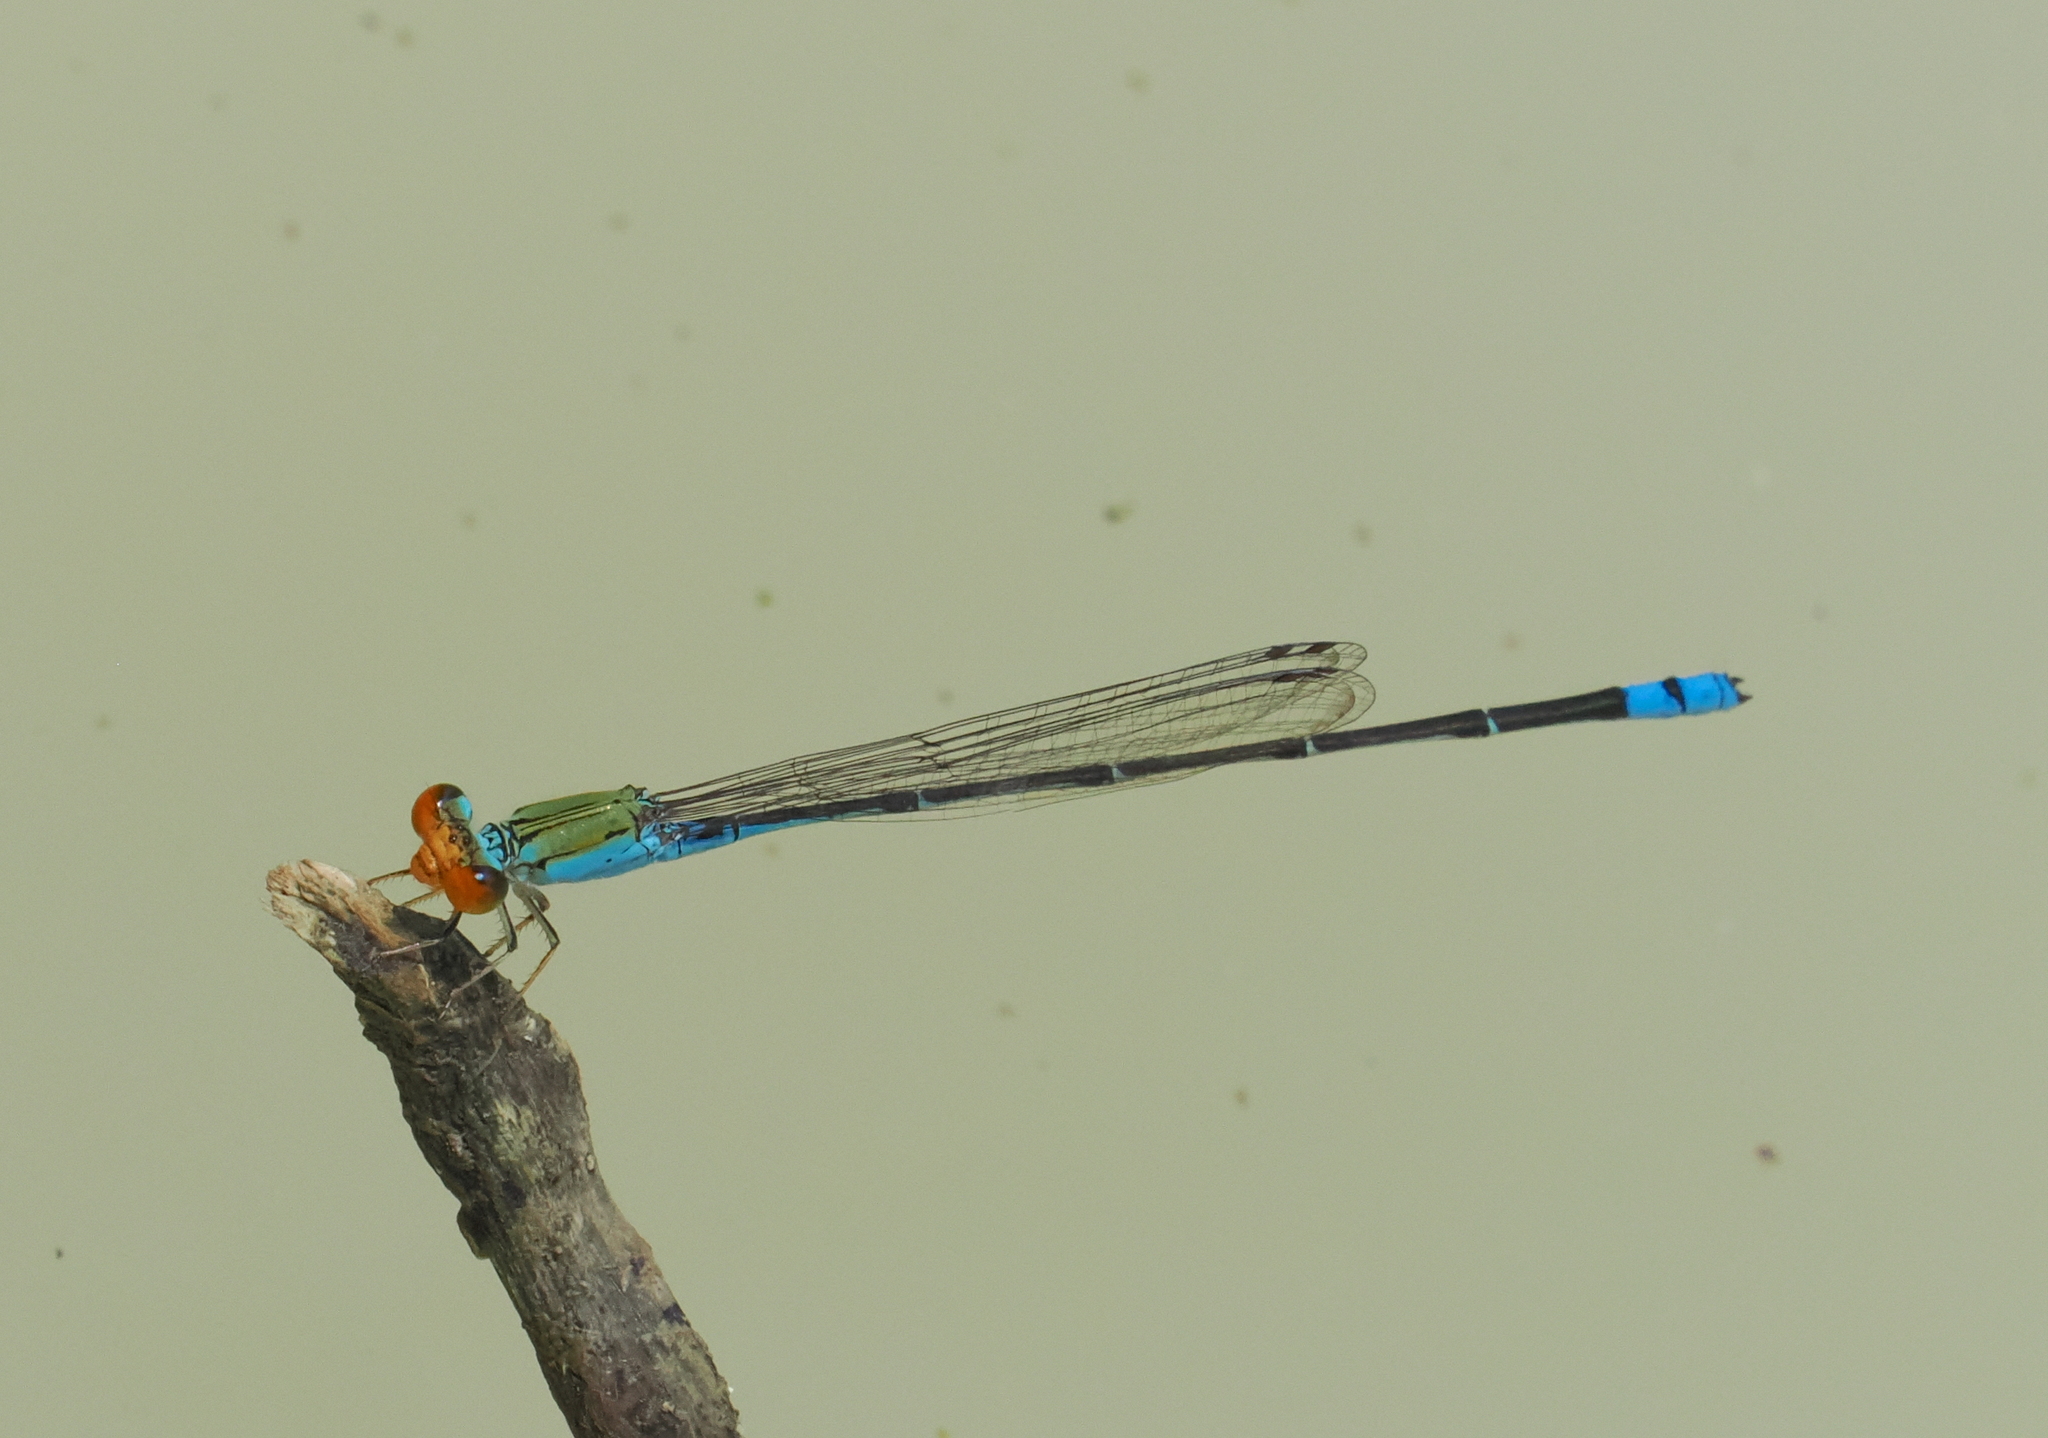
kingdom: Animalia
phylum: Arthropoda
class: Insecta
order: Odonata
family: Coenagrionidae
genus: Pseudagrion
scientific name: Pseudagrion rubriceps
